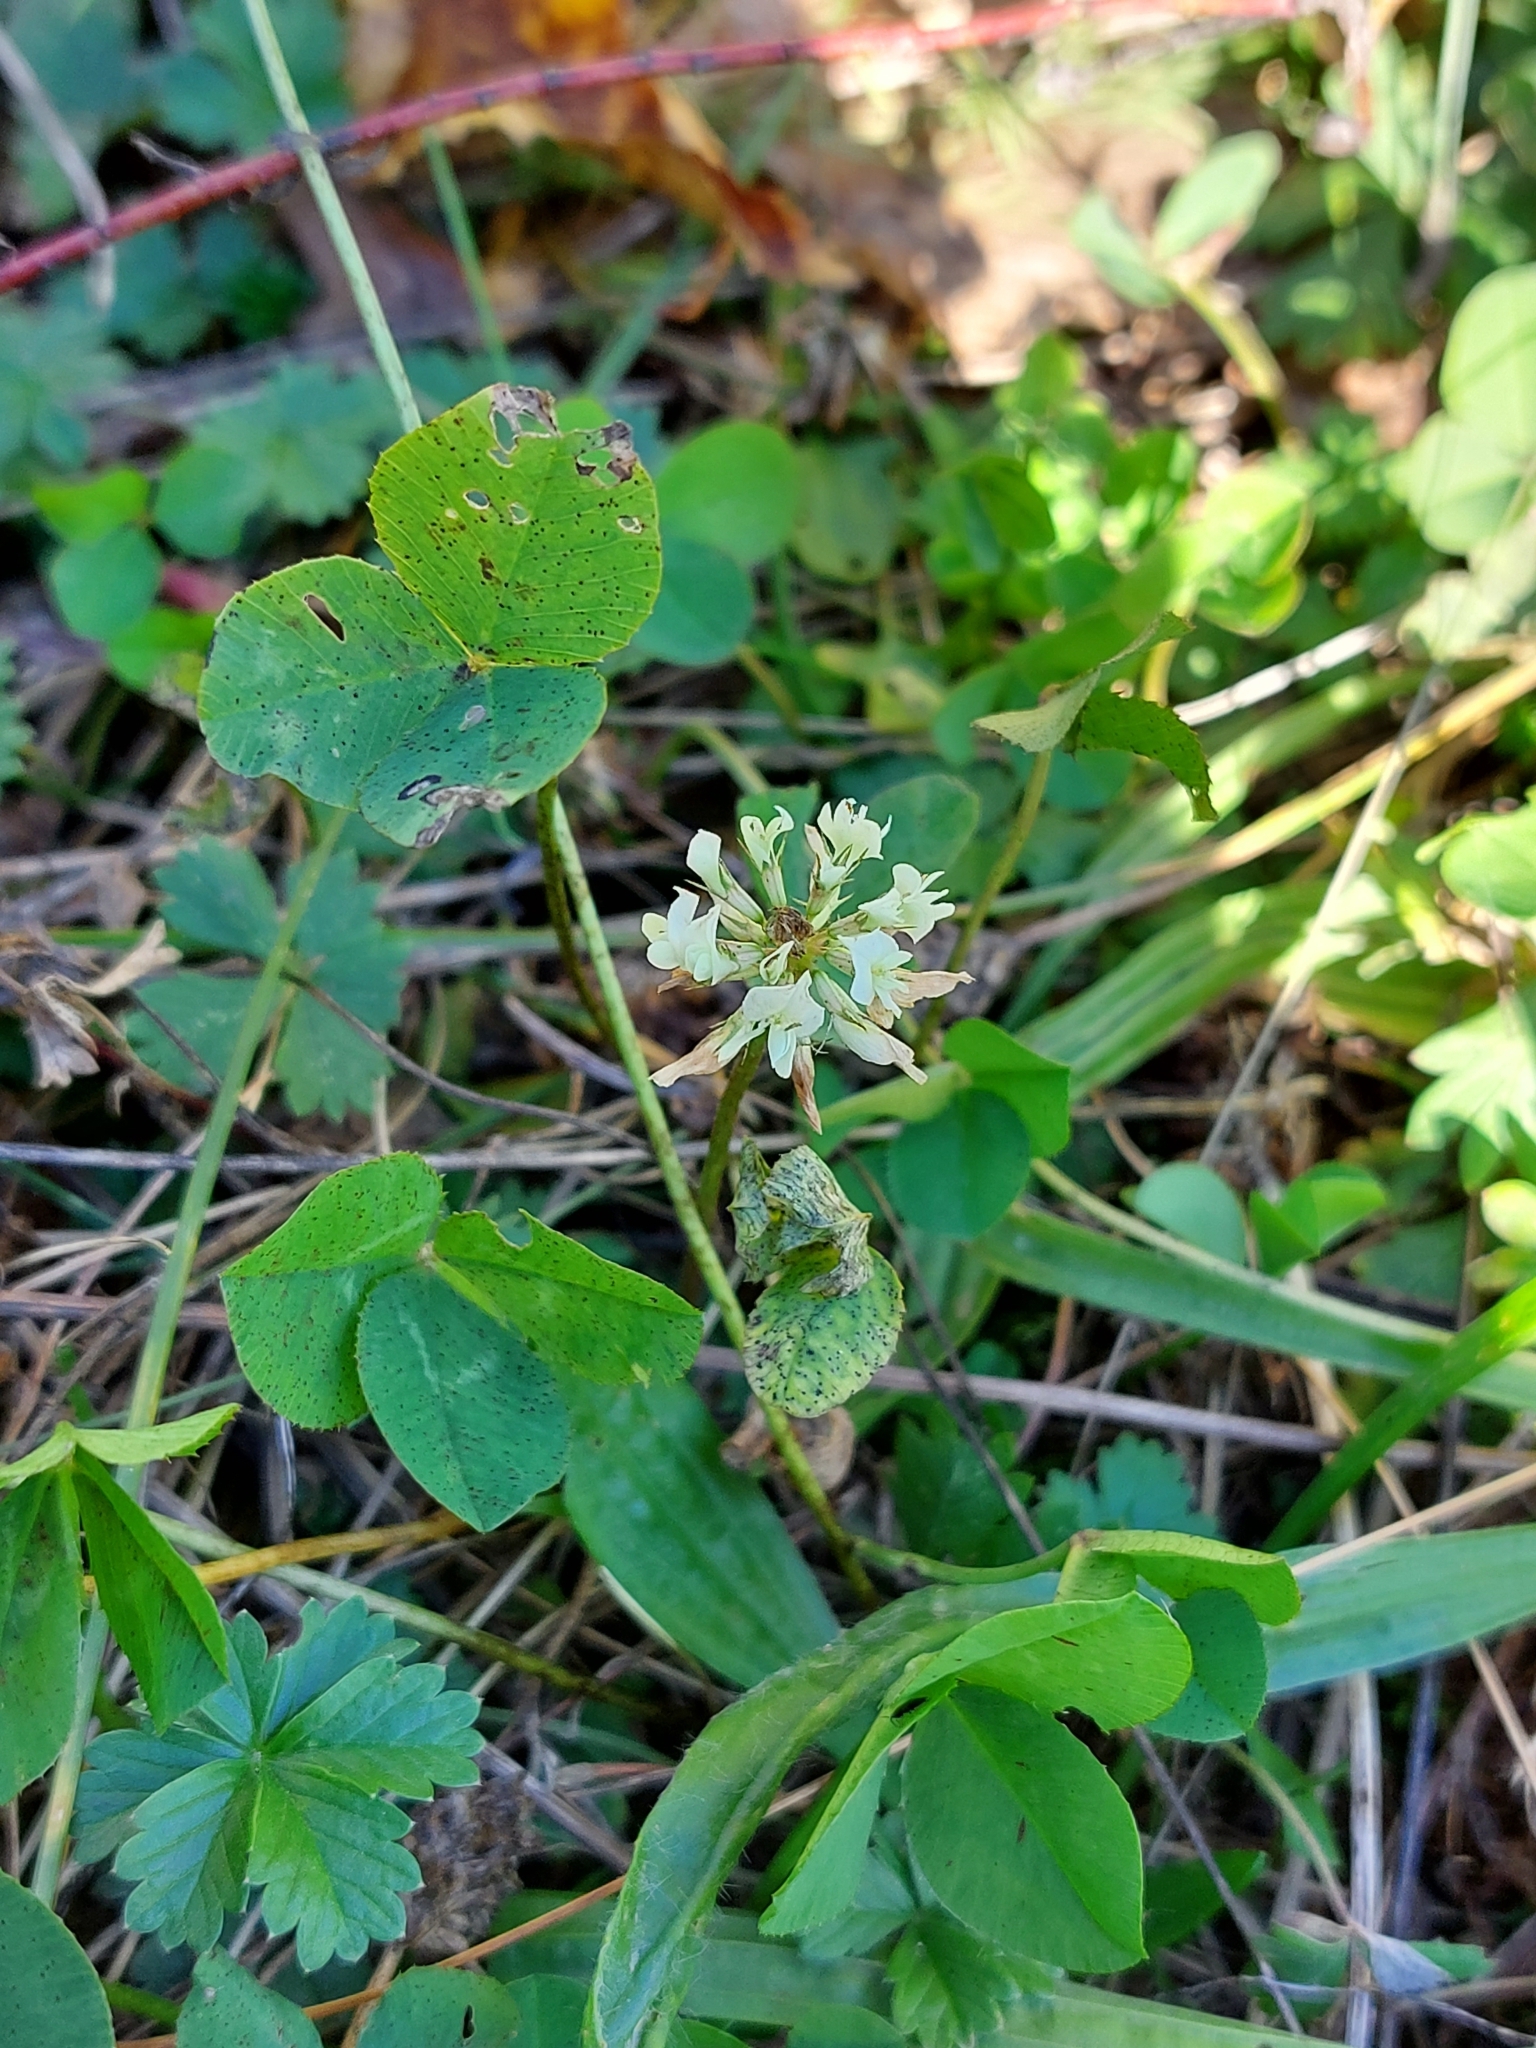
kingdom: Plantae
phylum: Tracheophyta
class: Magnoliopsida
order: Fabales
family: Fabaceae
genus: Trifolium
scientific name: Trifolium repens
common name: White clover
